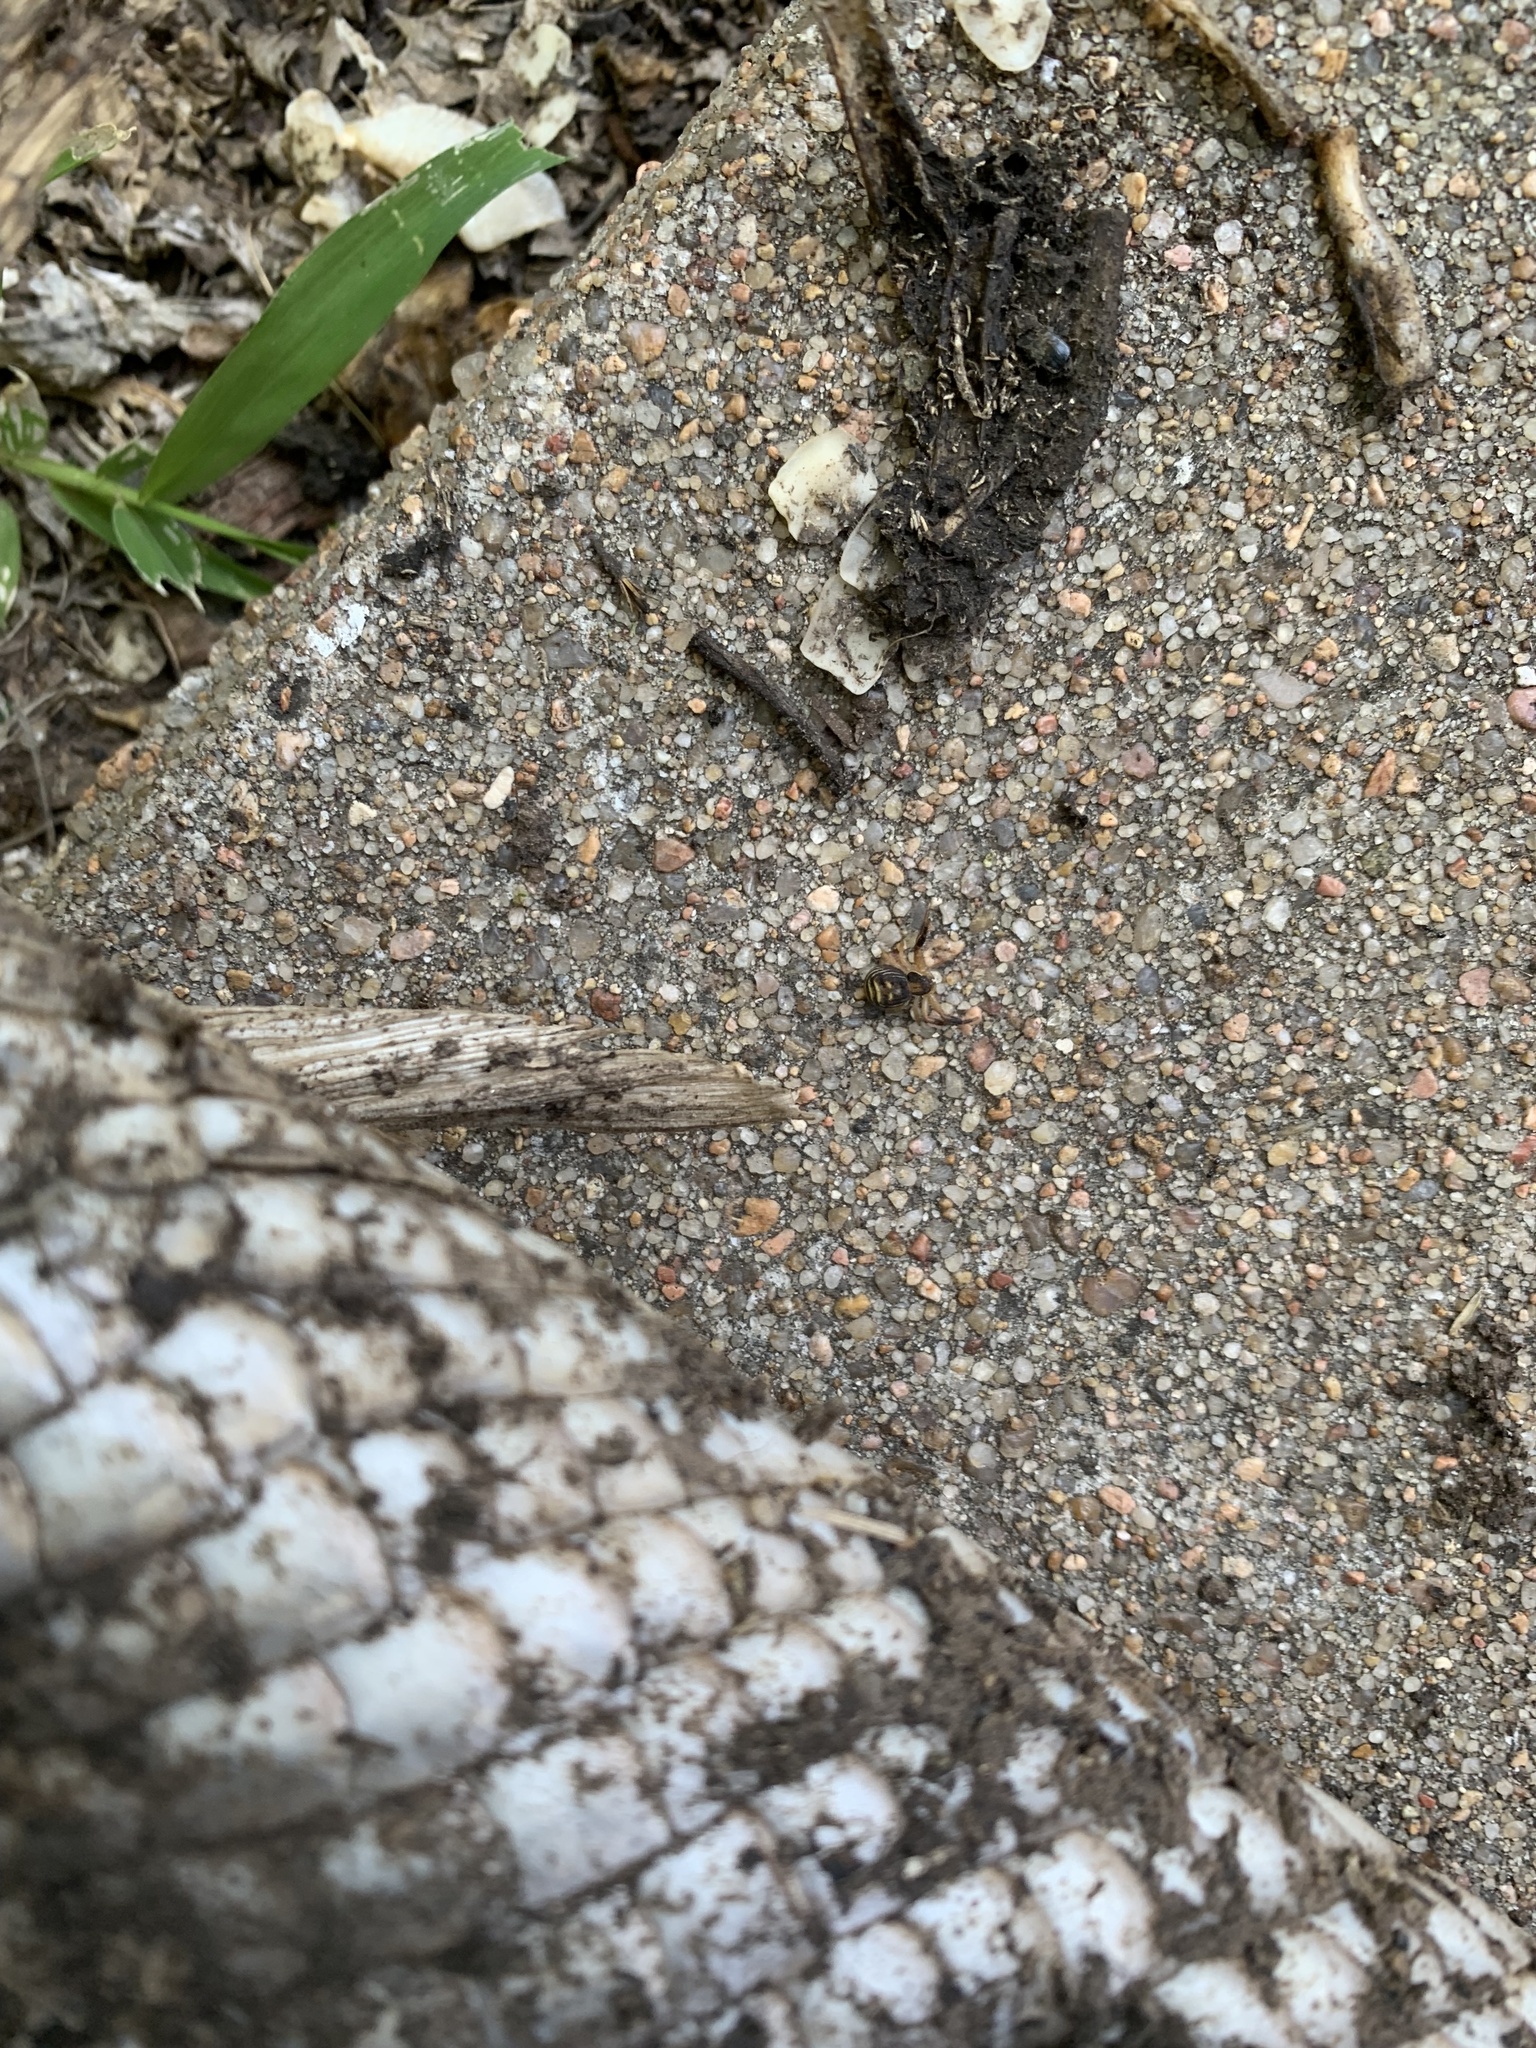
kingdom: Animalia
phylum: Arthropoda
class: Arachnida
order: Araneae
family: Thomisidae
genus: Xysticus
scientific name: Xysticus texanus
